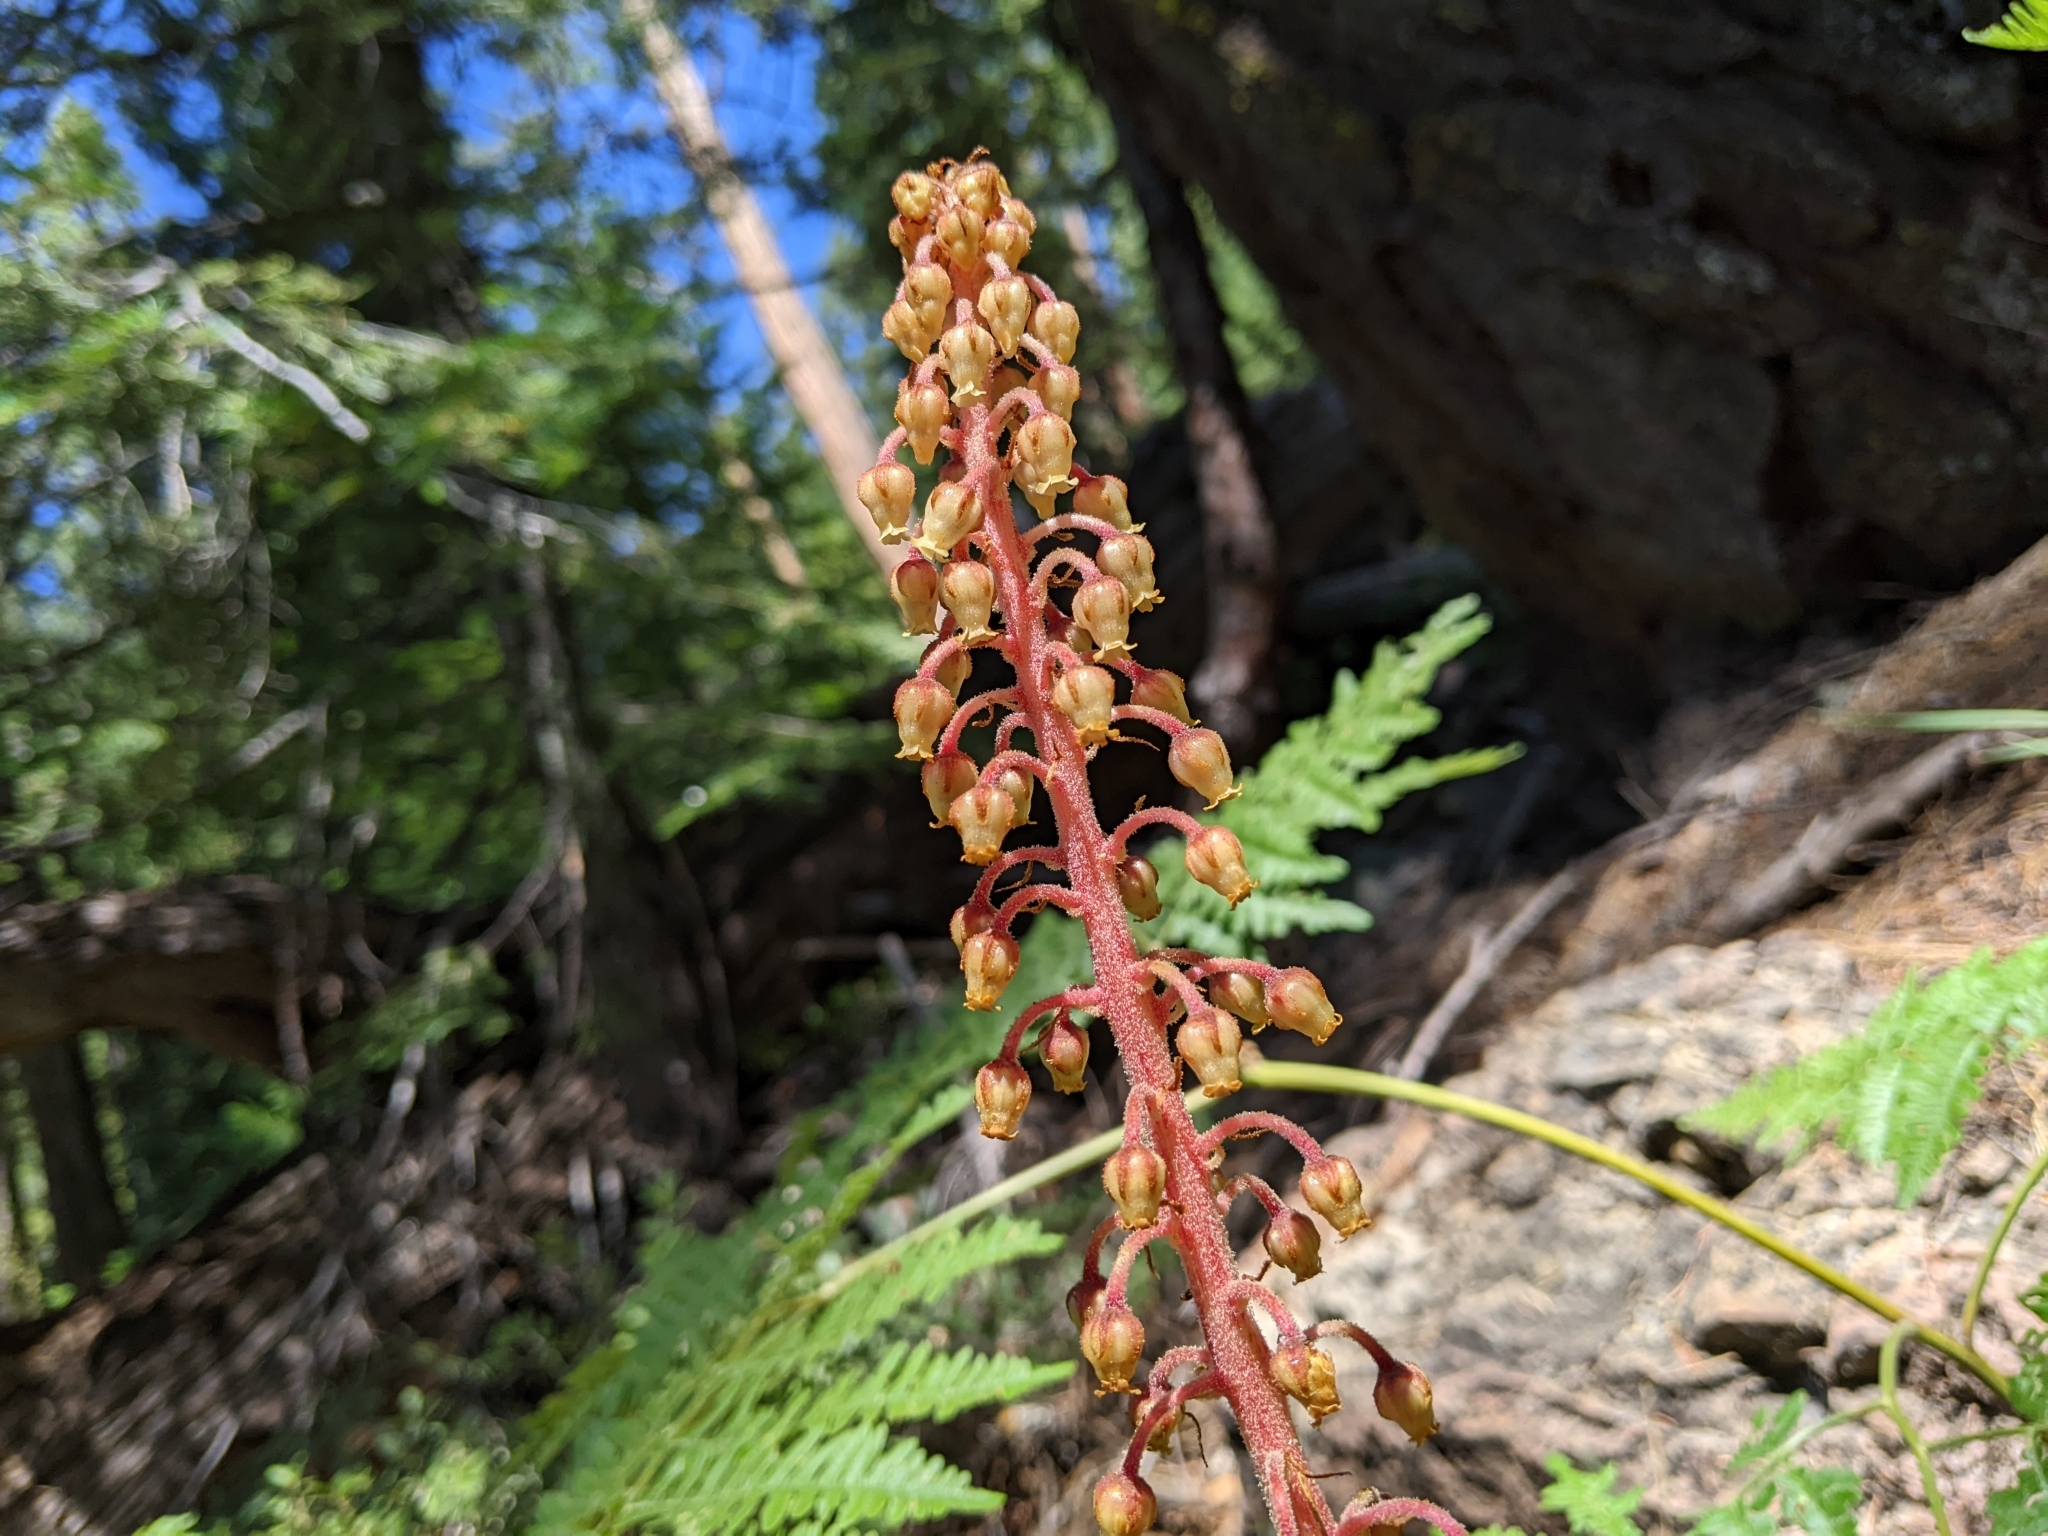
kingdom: Plantae
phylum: Tracheophyta
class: Magnoliopsida
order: Ericales
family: Ericaceae
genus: Pterospora
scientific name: Pterospora andromedea
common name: Giant bird's-nest
